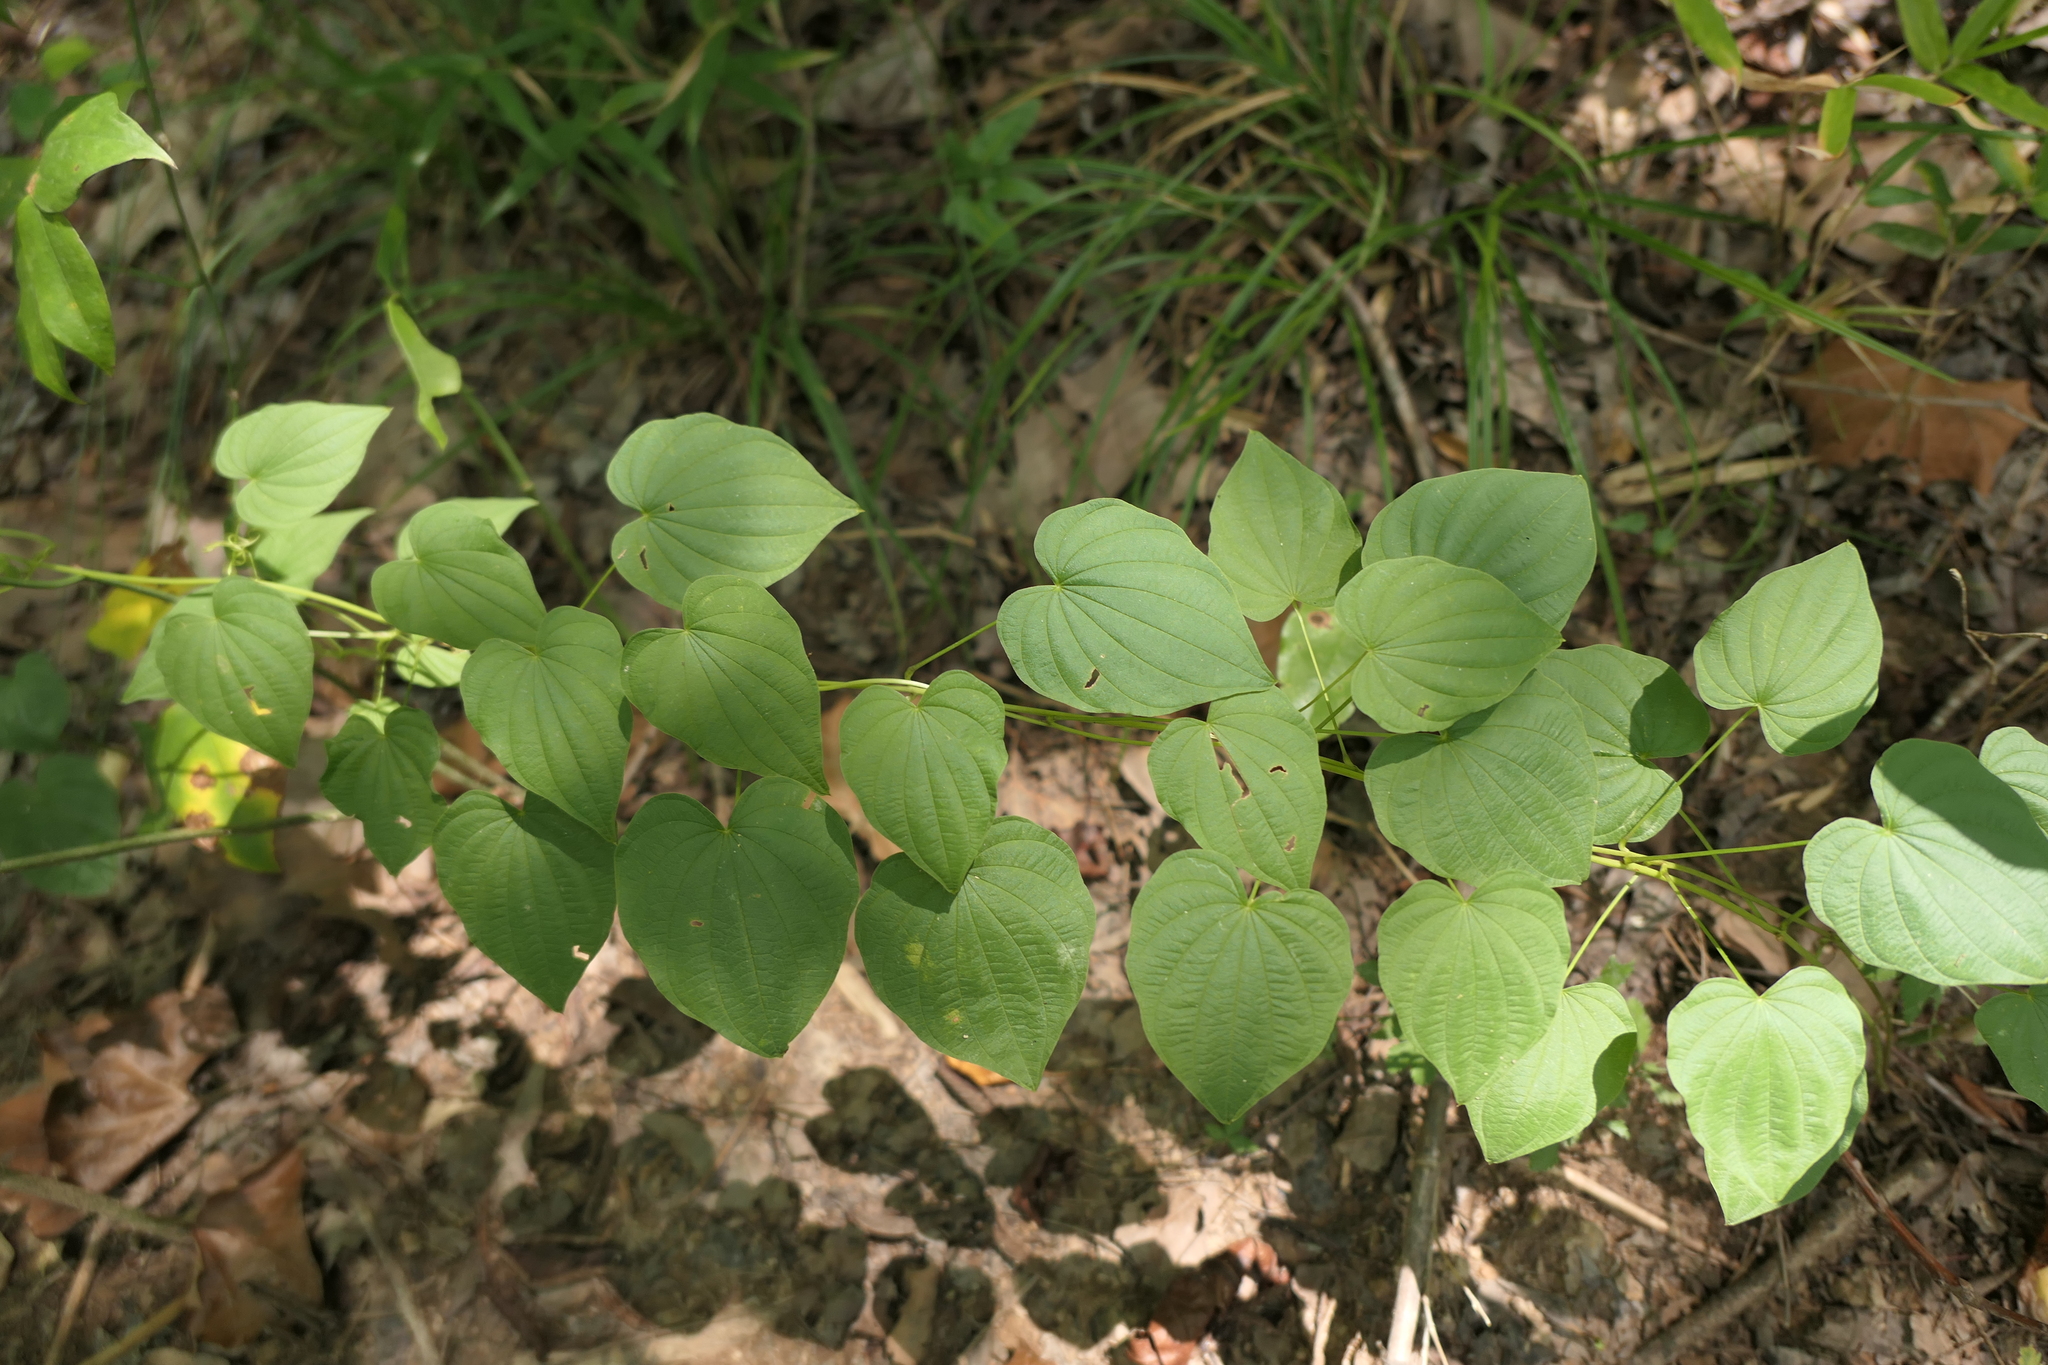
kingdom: Plantae
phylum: Tracheophyta
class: Liliopsida
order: Dioscoreales
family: Dioscoreaceae
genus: Dioscorea
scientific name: Dioscorea villosa
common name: Wild yam
